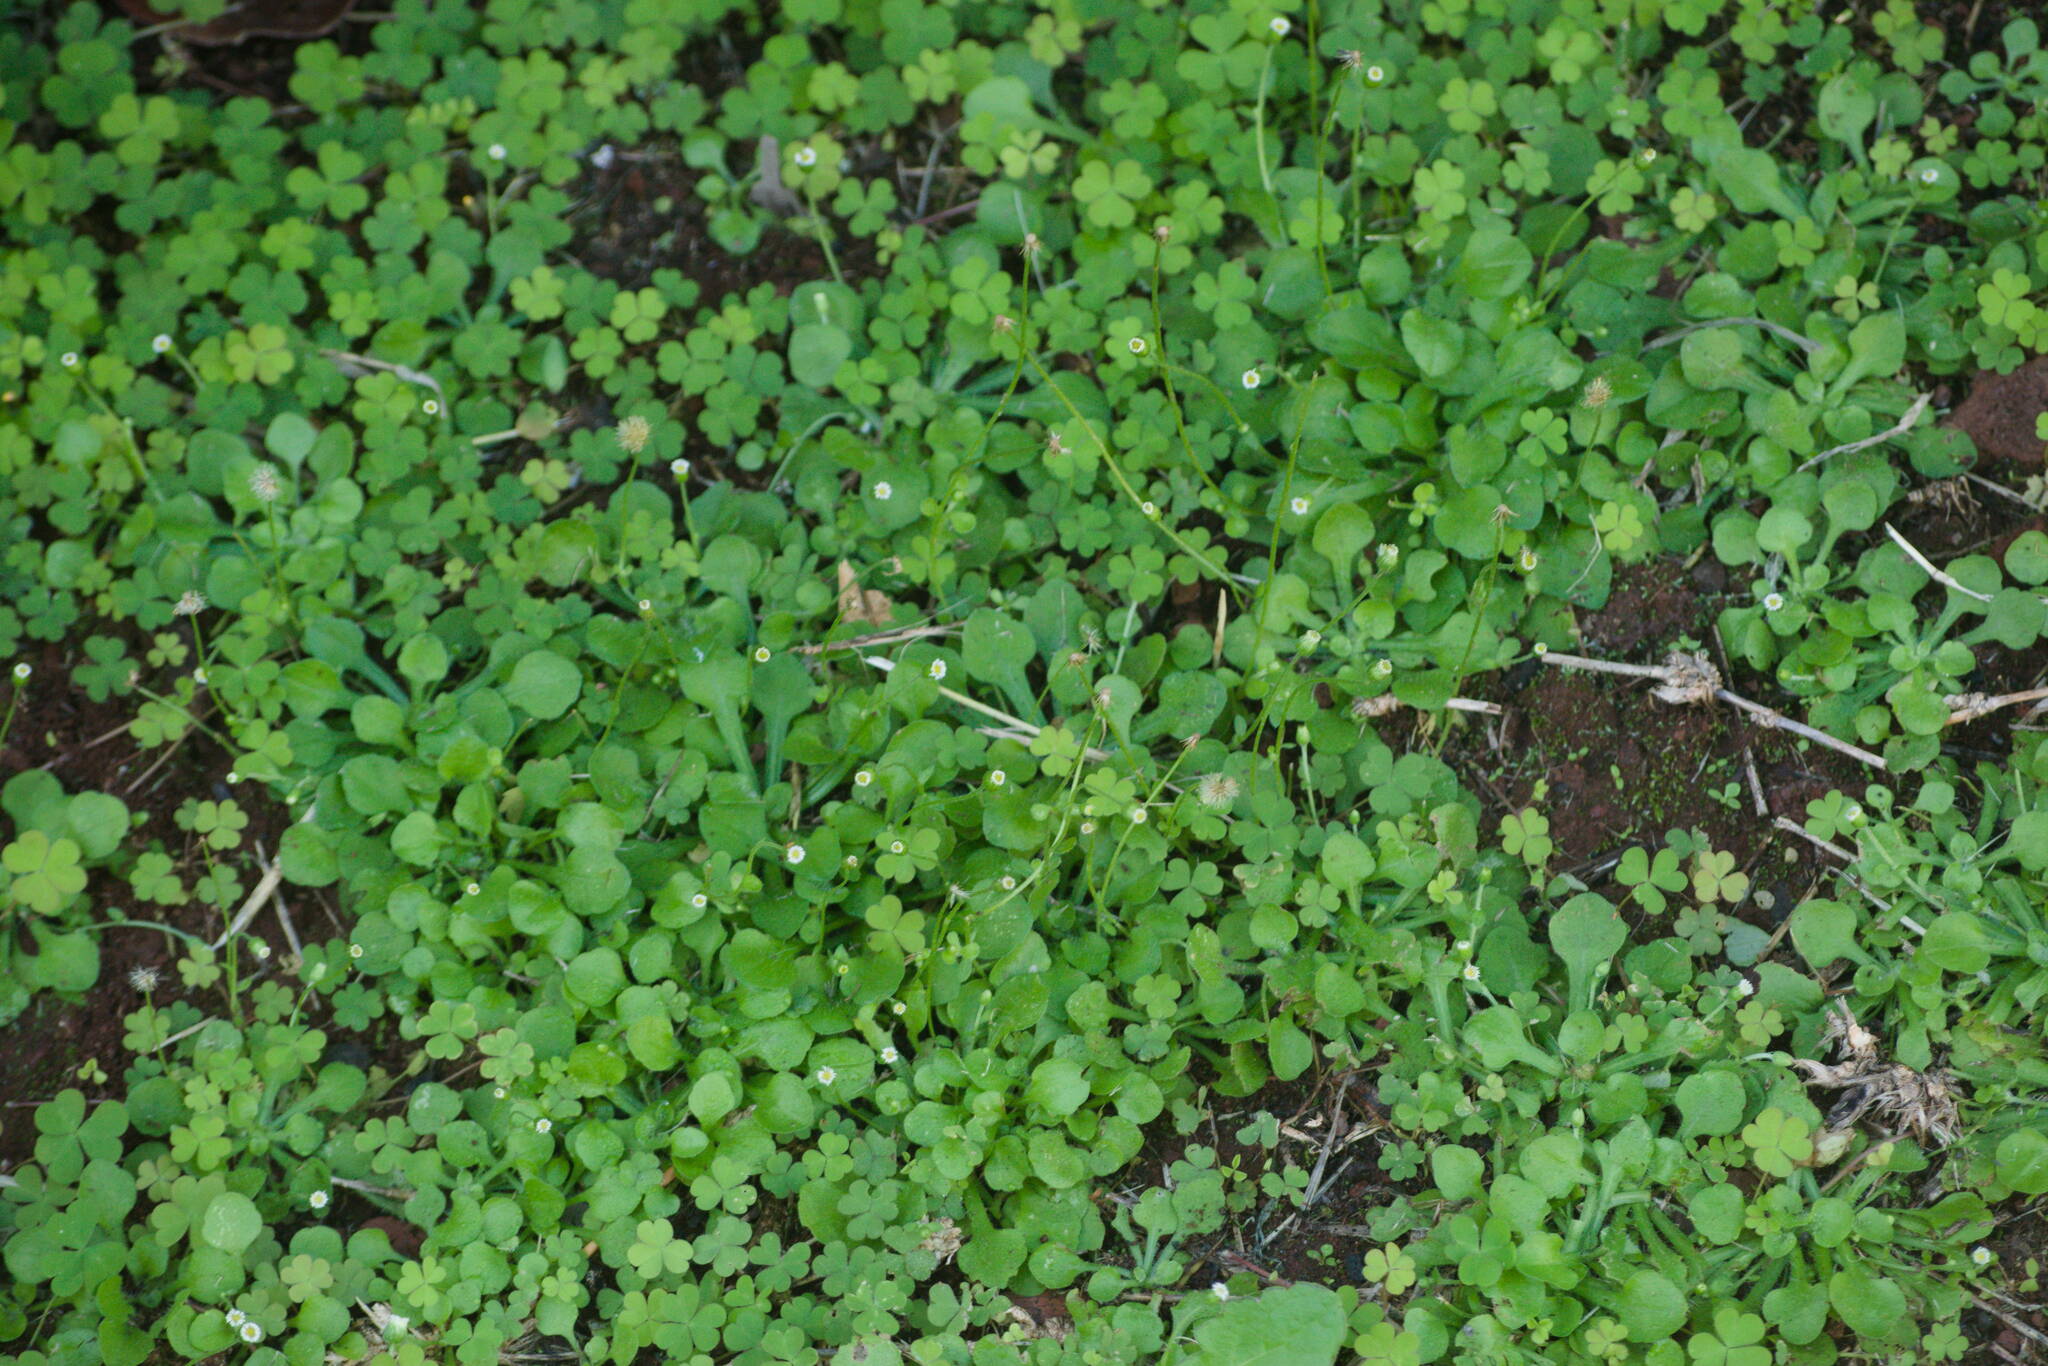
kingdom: Plantae
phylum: Tracheophyta
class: Magnoliopsida
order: Asterales
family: Asteraceae
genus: Erigeron
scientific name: Erigeron bellioides
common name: Bellorita
